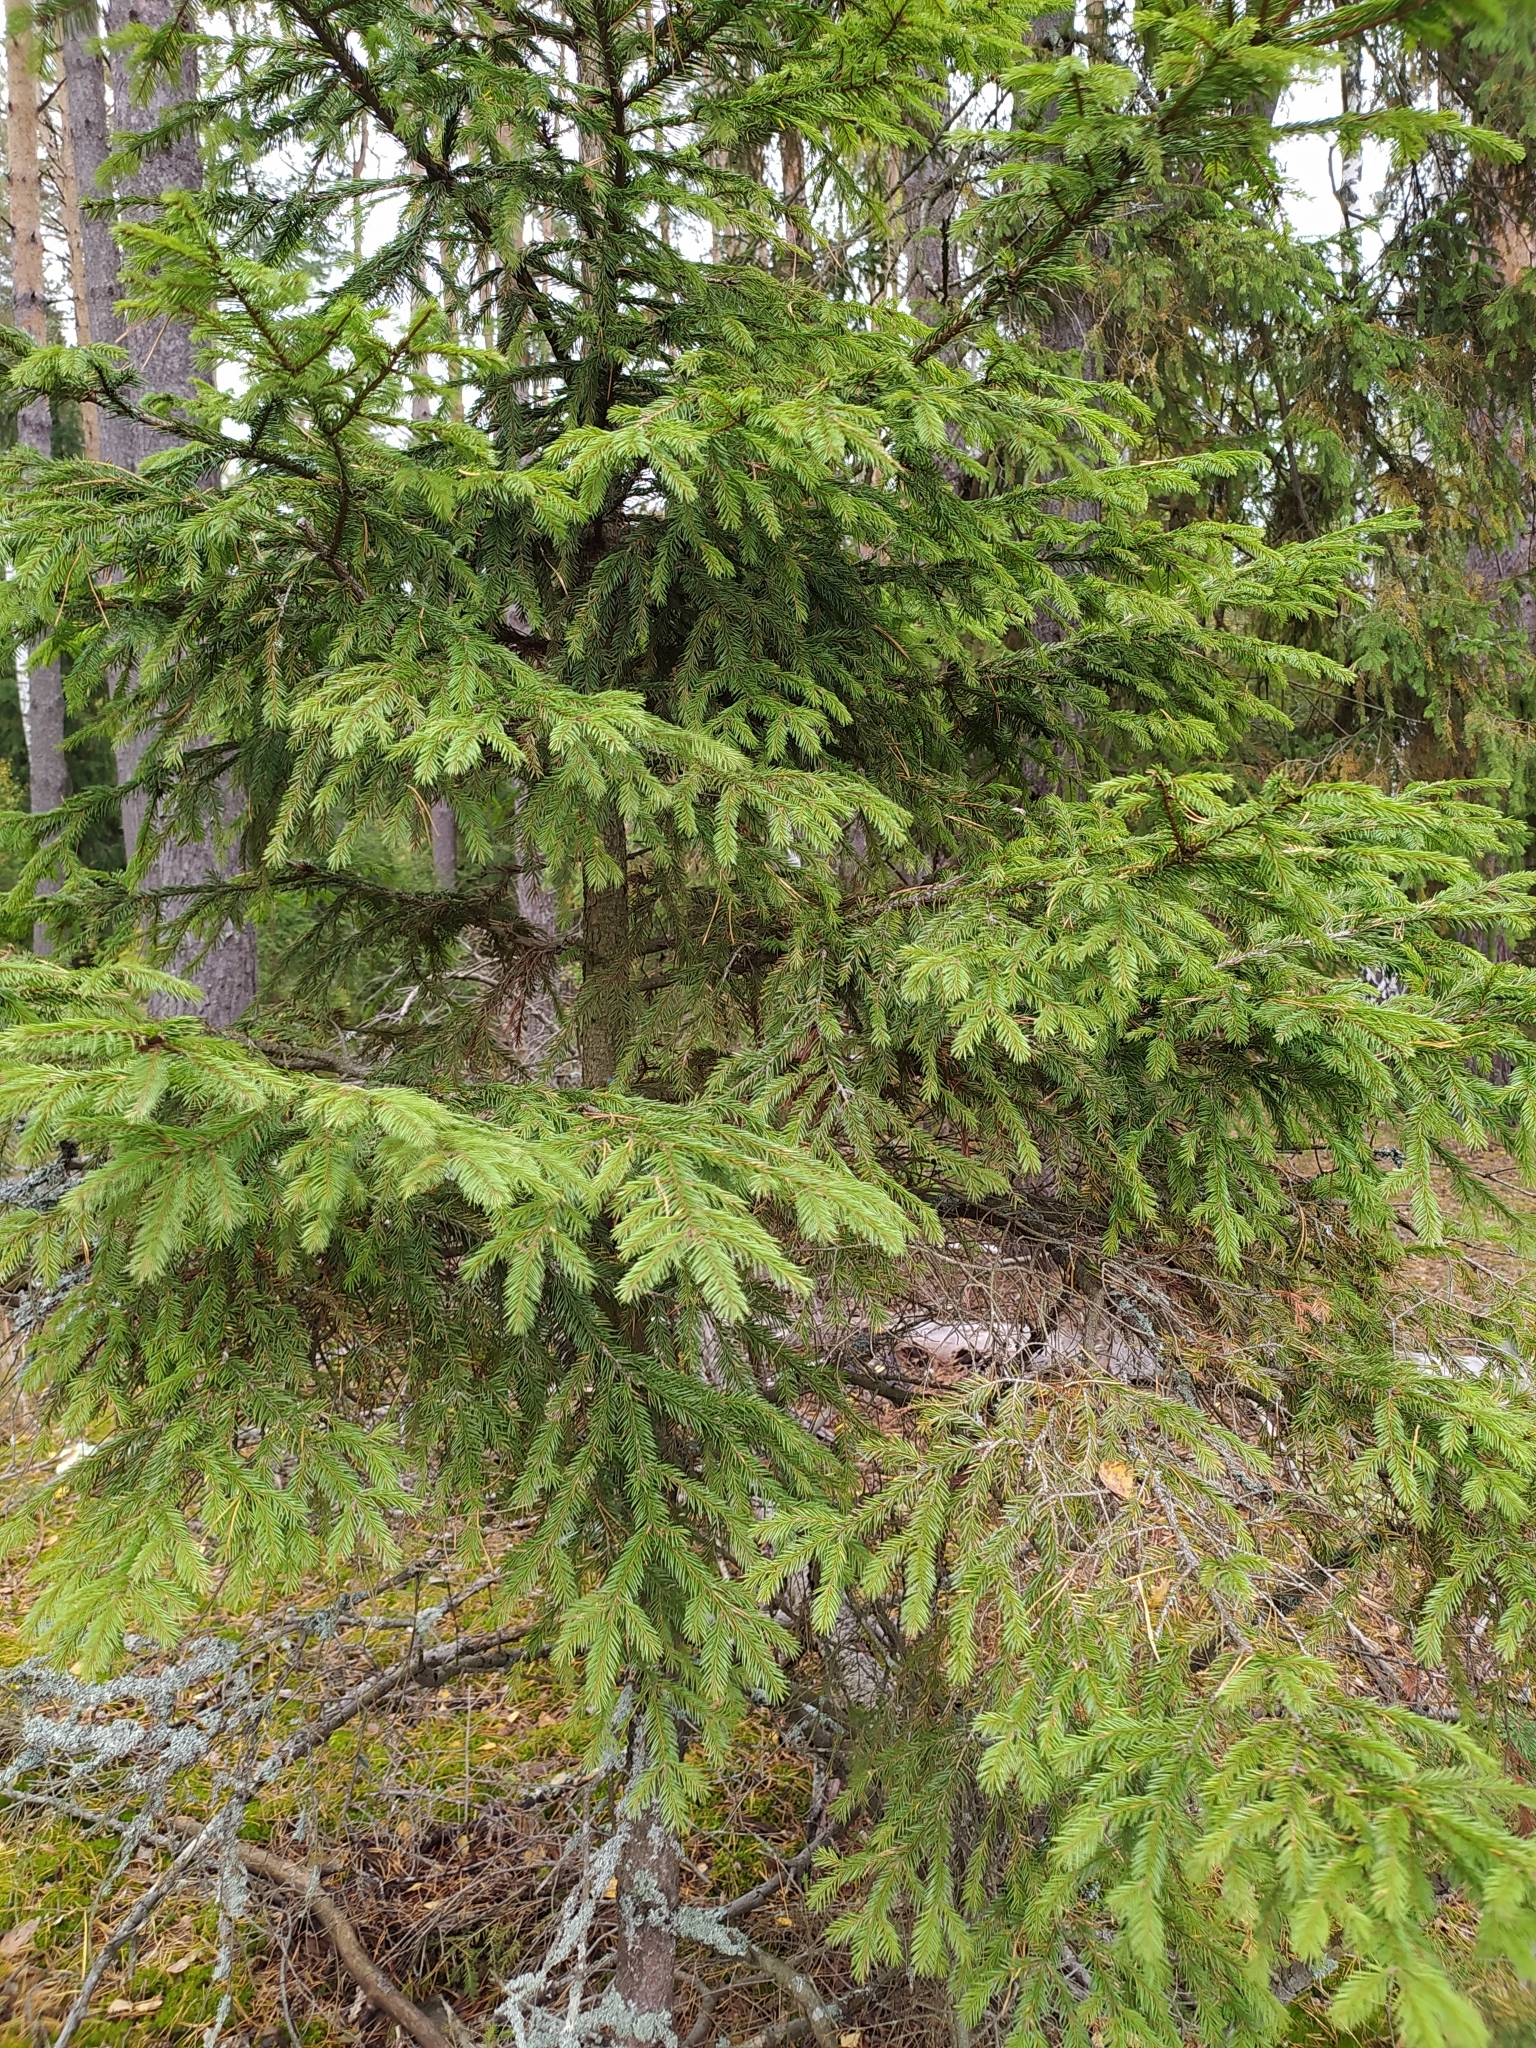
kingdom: Plantae
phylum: Tracheophyta
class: Pinopsida
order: Pinales
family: Pinaceae
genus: Picea
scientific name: Picea abies
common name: Norway spruce
